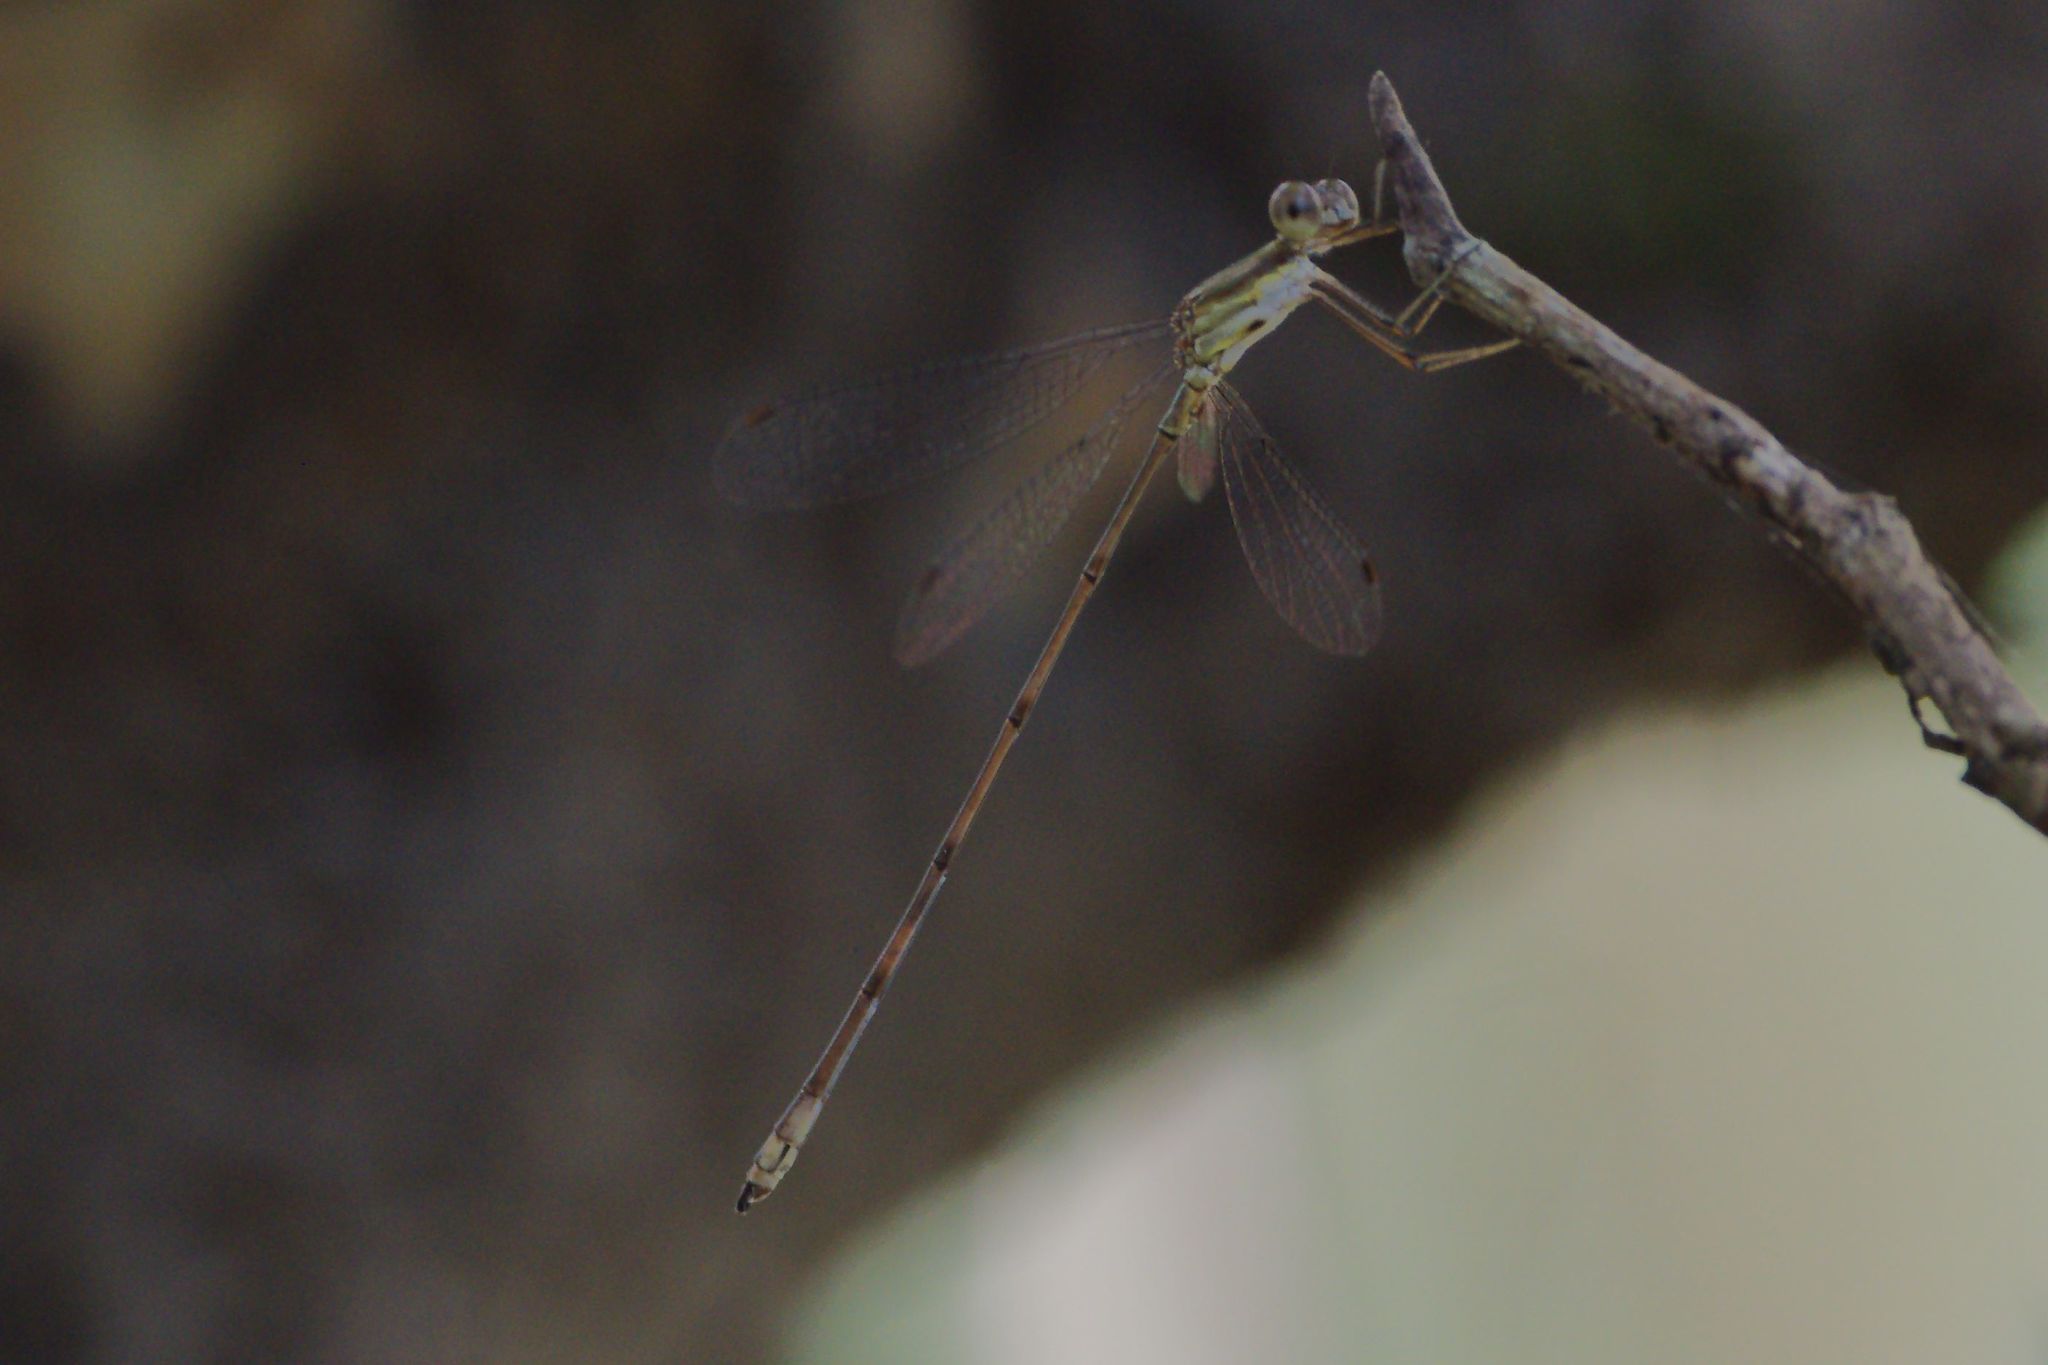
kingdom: Animalia
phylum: Arthropoda
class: Insecta
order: Odonata
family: Lestidae
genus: Lestes
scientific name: Lestes tenuatus
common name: Blue-striped spreadwing
